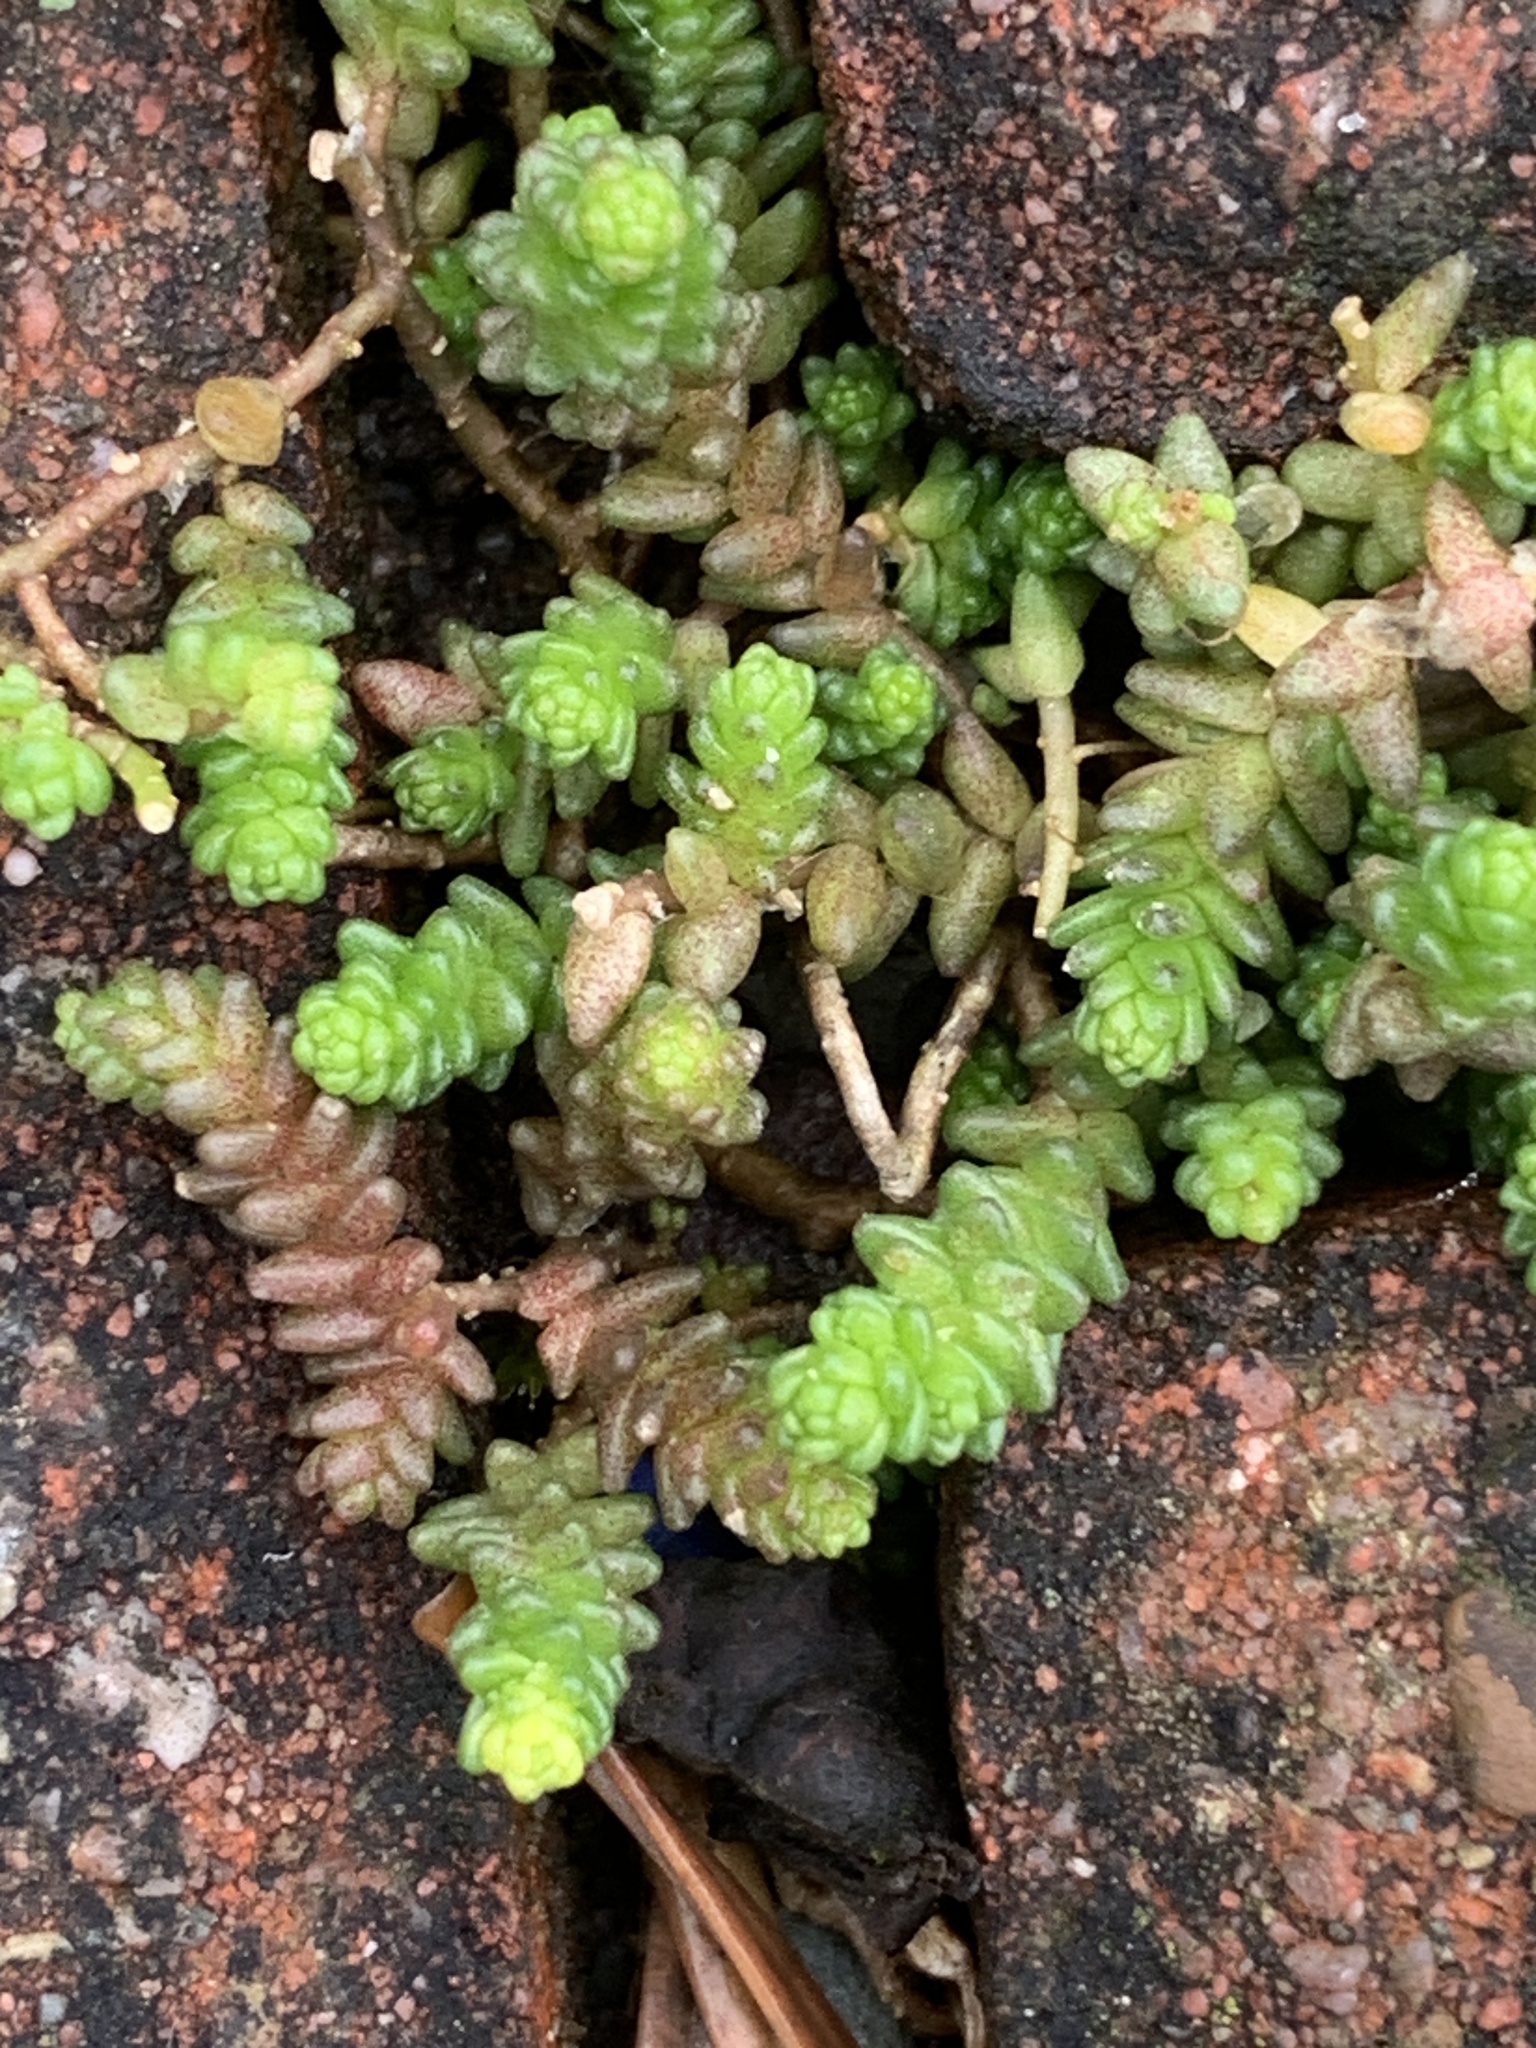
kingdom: Plantae
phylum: Tracheophyta
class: Magnoliopsida
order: Saxifragales
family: Crassulaceae
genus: Sedum
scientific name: Sedum acre
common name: Biting stonecrop
